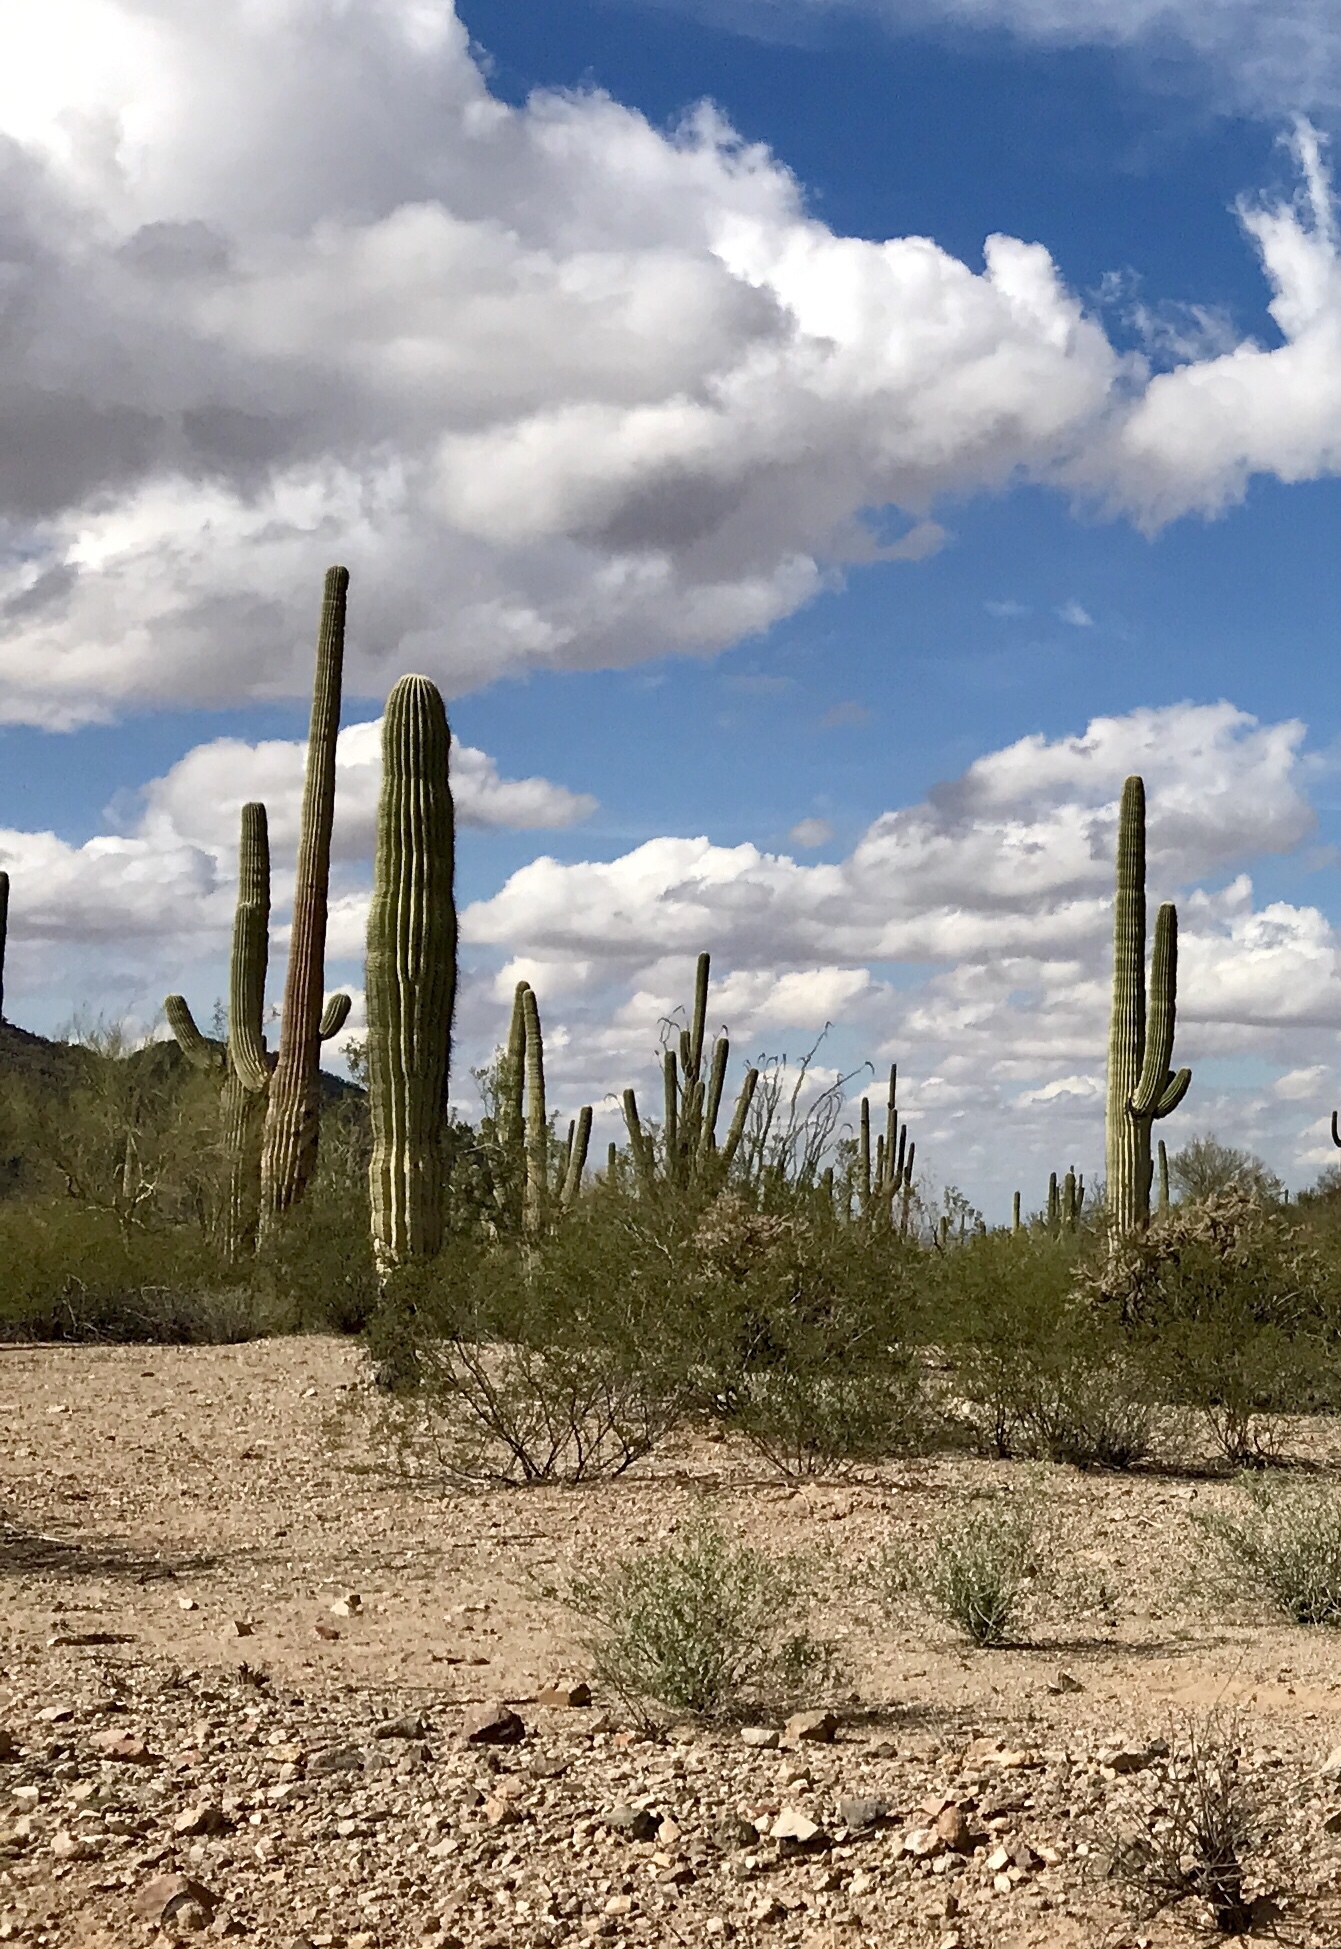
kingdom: Plantae
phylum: Tracheophyta
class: Magnoliopsida
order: Caryophyllales
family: Cactaceae
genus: Carnegiea
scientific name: Carnegiea gigantea
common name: Saguaro
